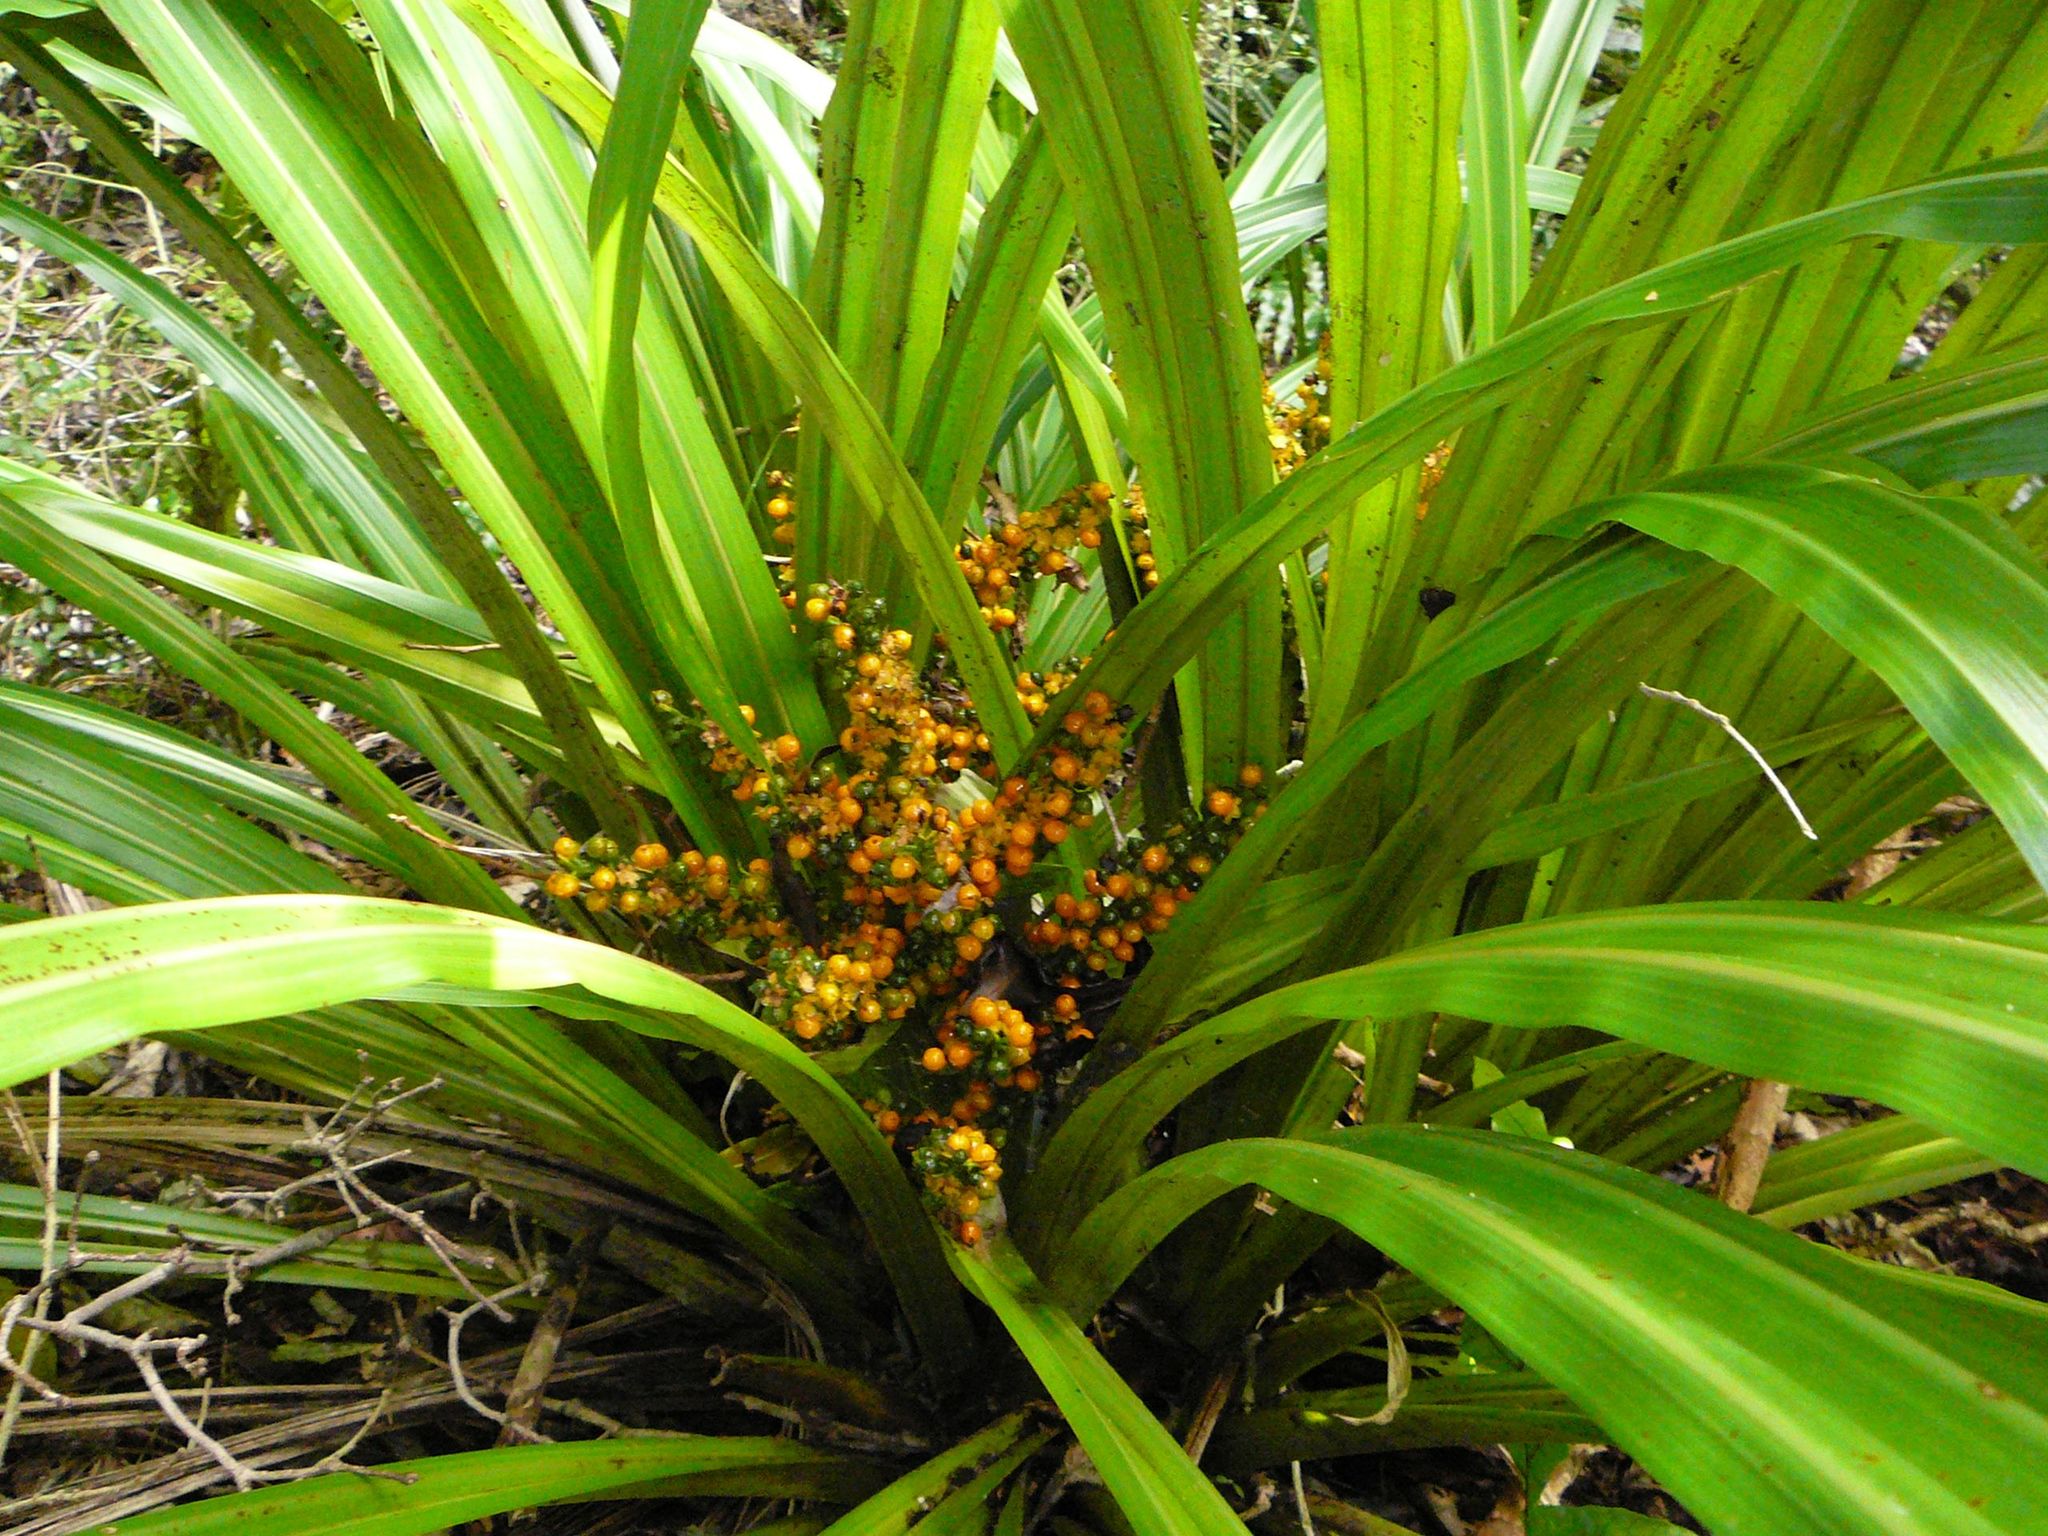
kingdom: Plantae
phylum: Tracheophyta
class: Liliopsida
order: Asparagales
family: Asteliaceae
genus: Astelia
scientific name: Astelia fragrans
